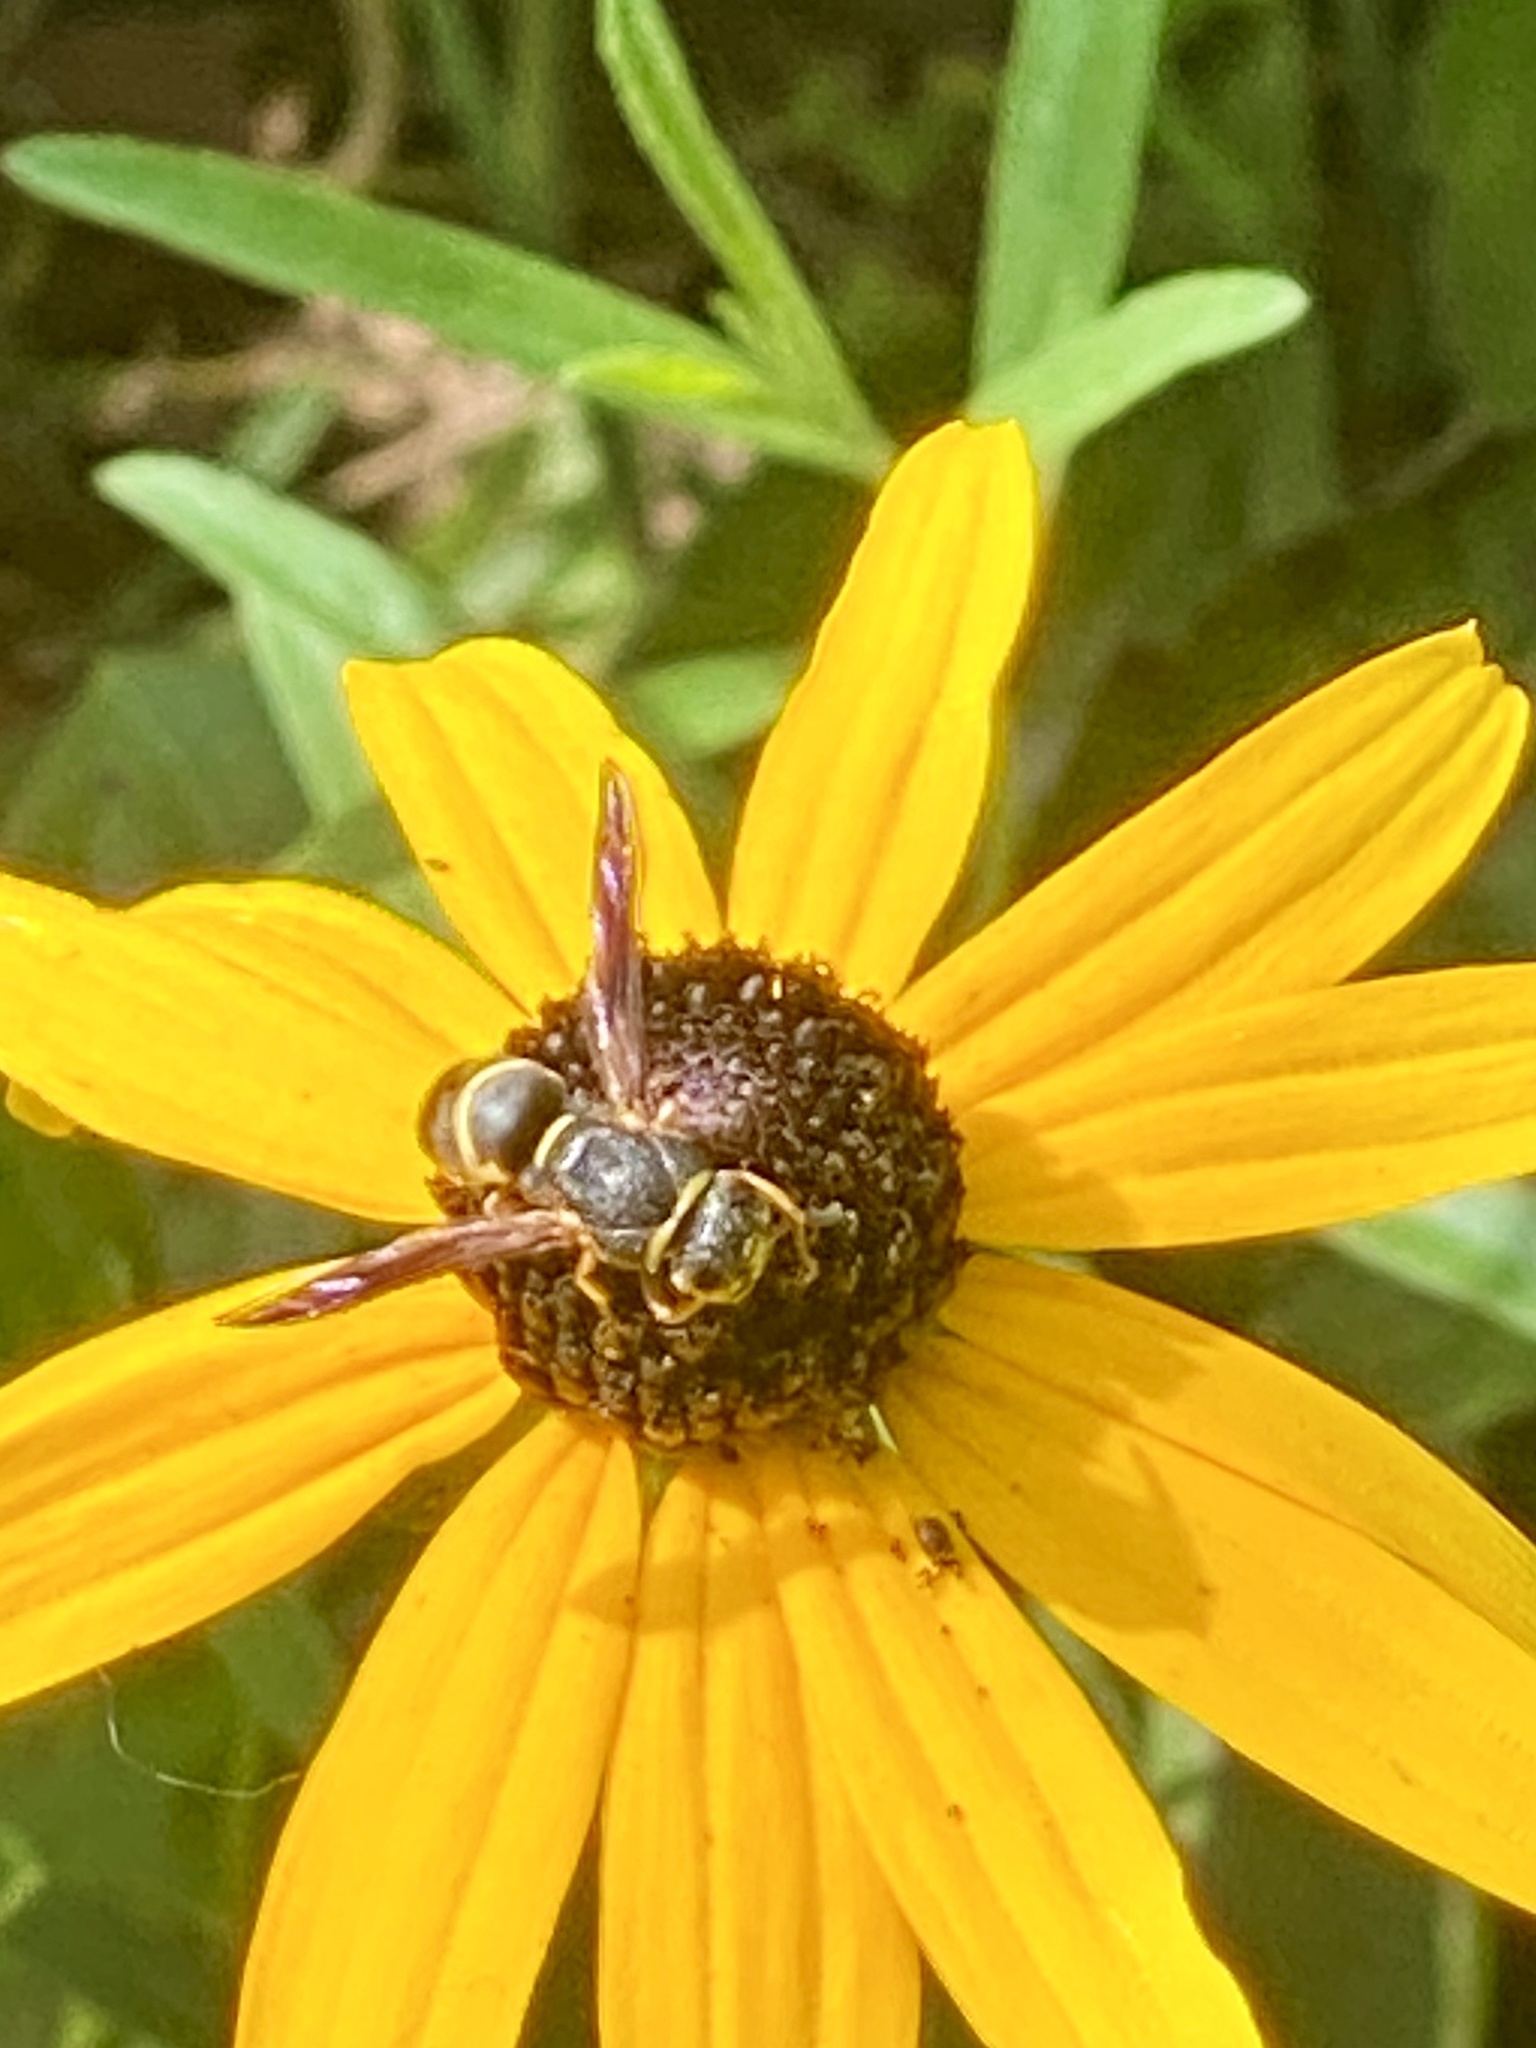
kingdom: Animalia
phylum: Arthropoda
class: Insecta
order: Hymenoptera
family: Eumenidae
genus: Euodynerus
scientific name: Euodynerus hidalgo
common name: Wasp
